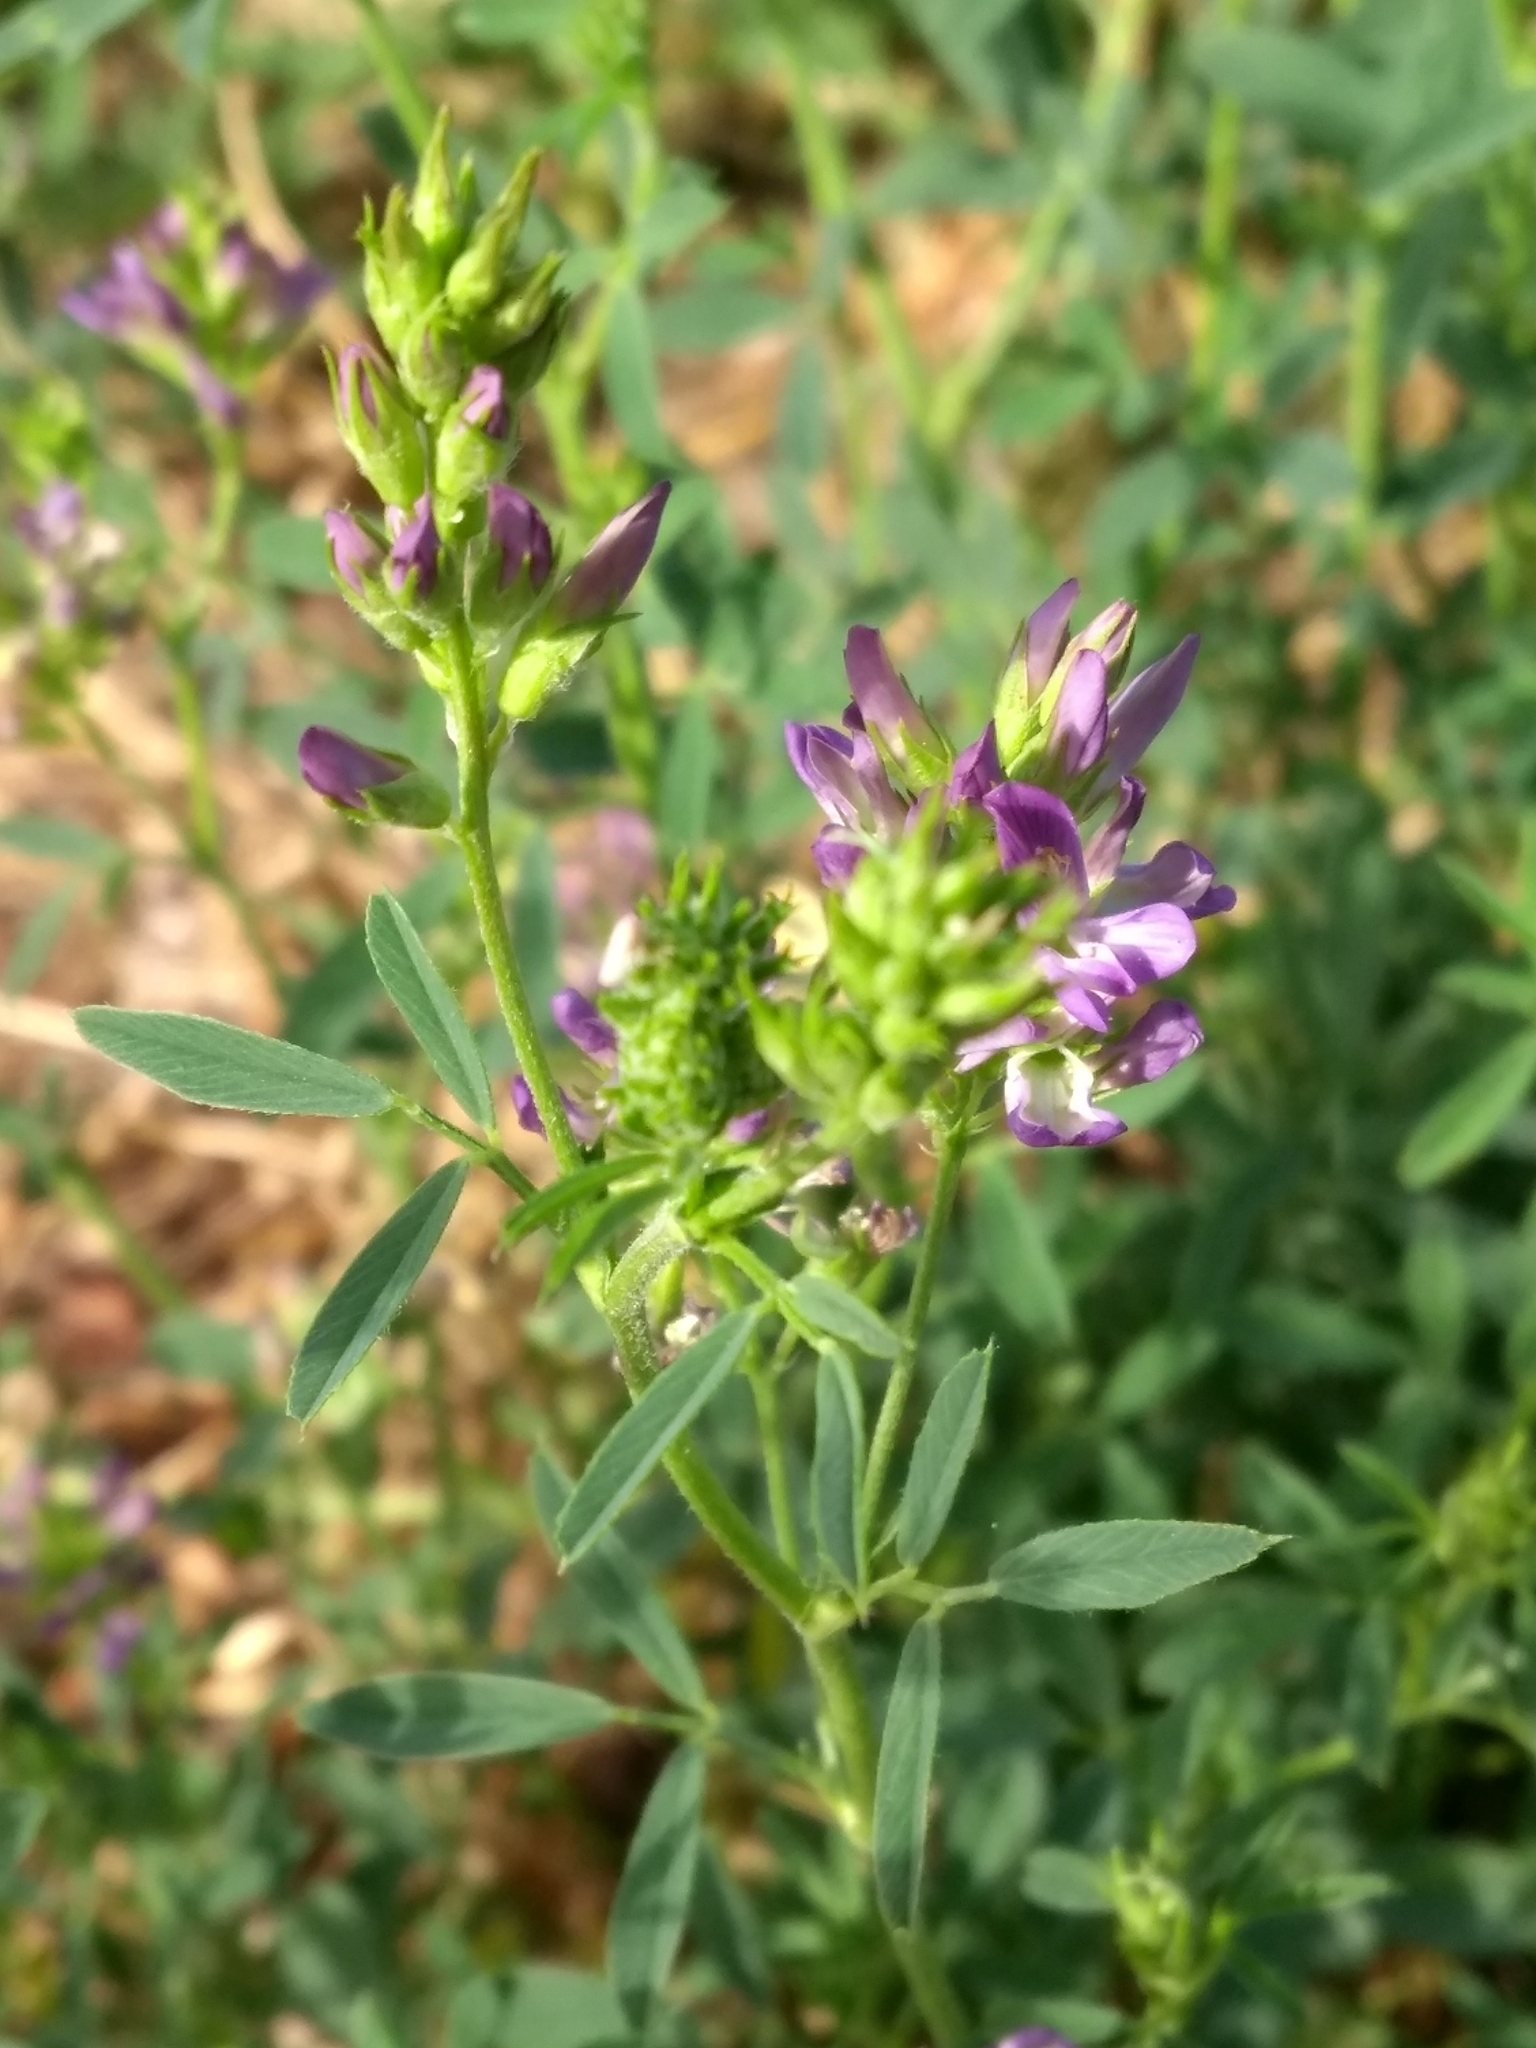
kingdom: Plantae
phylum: Tracheophyta
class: Magnoliopsida
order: Fabales
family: Fabaceae
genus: Medicago
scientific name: Medicago sativa
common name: Alfalfa
